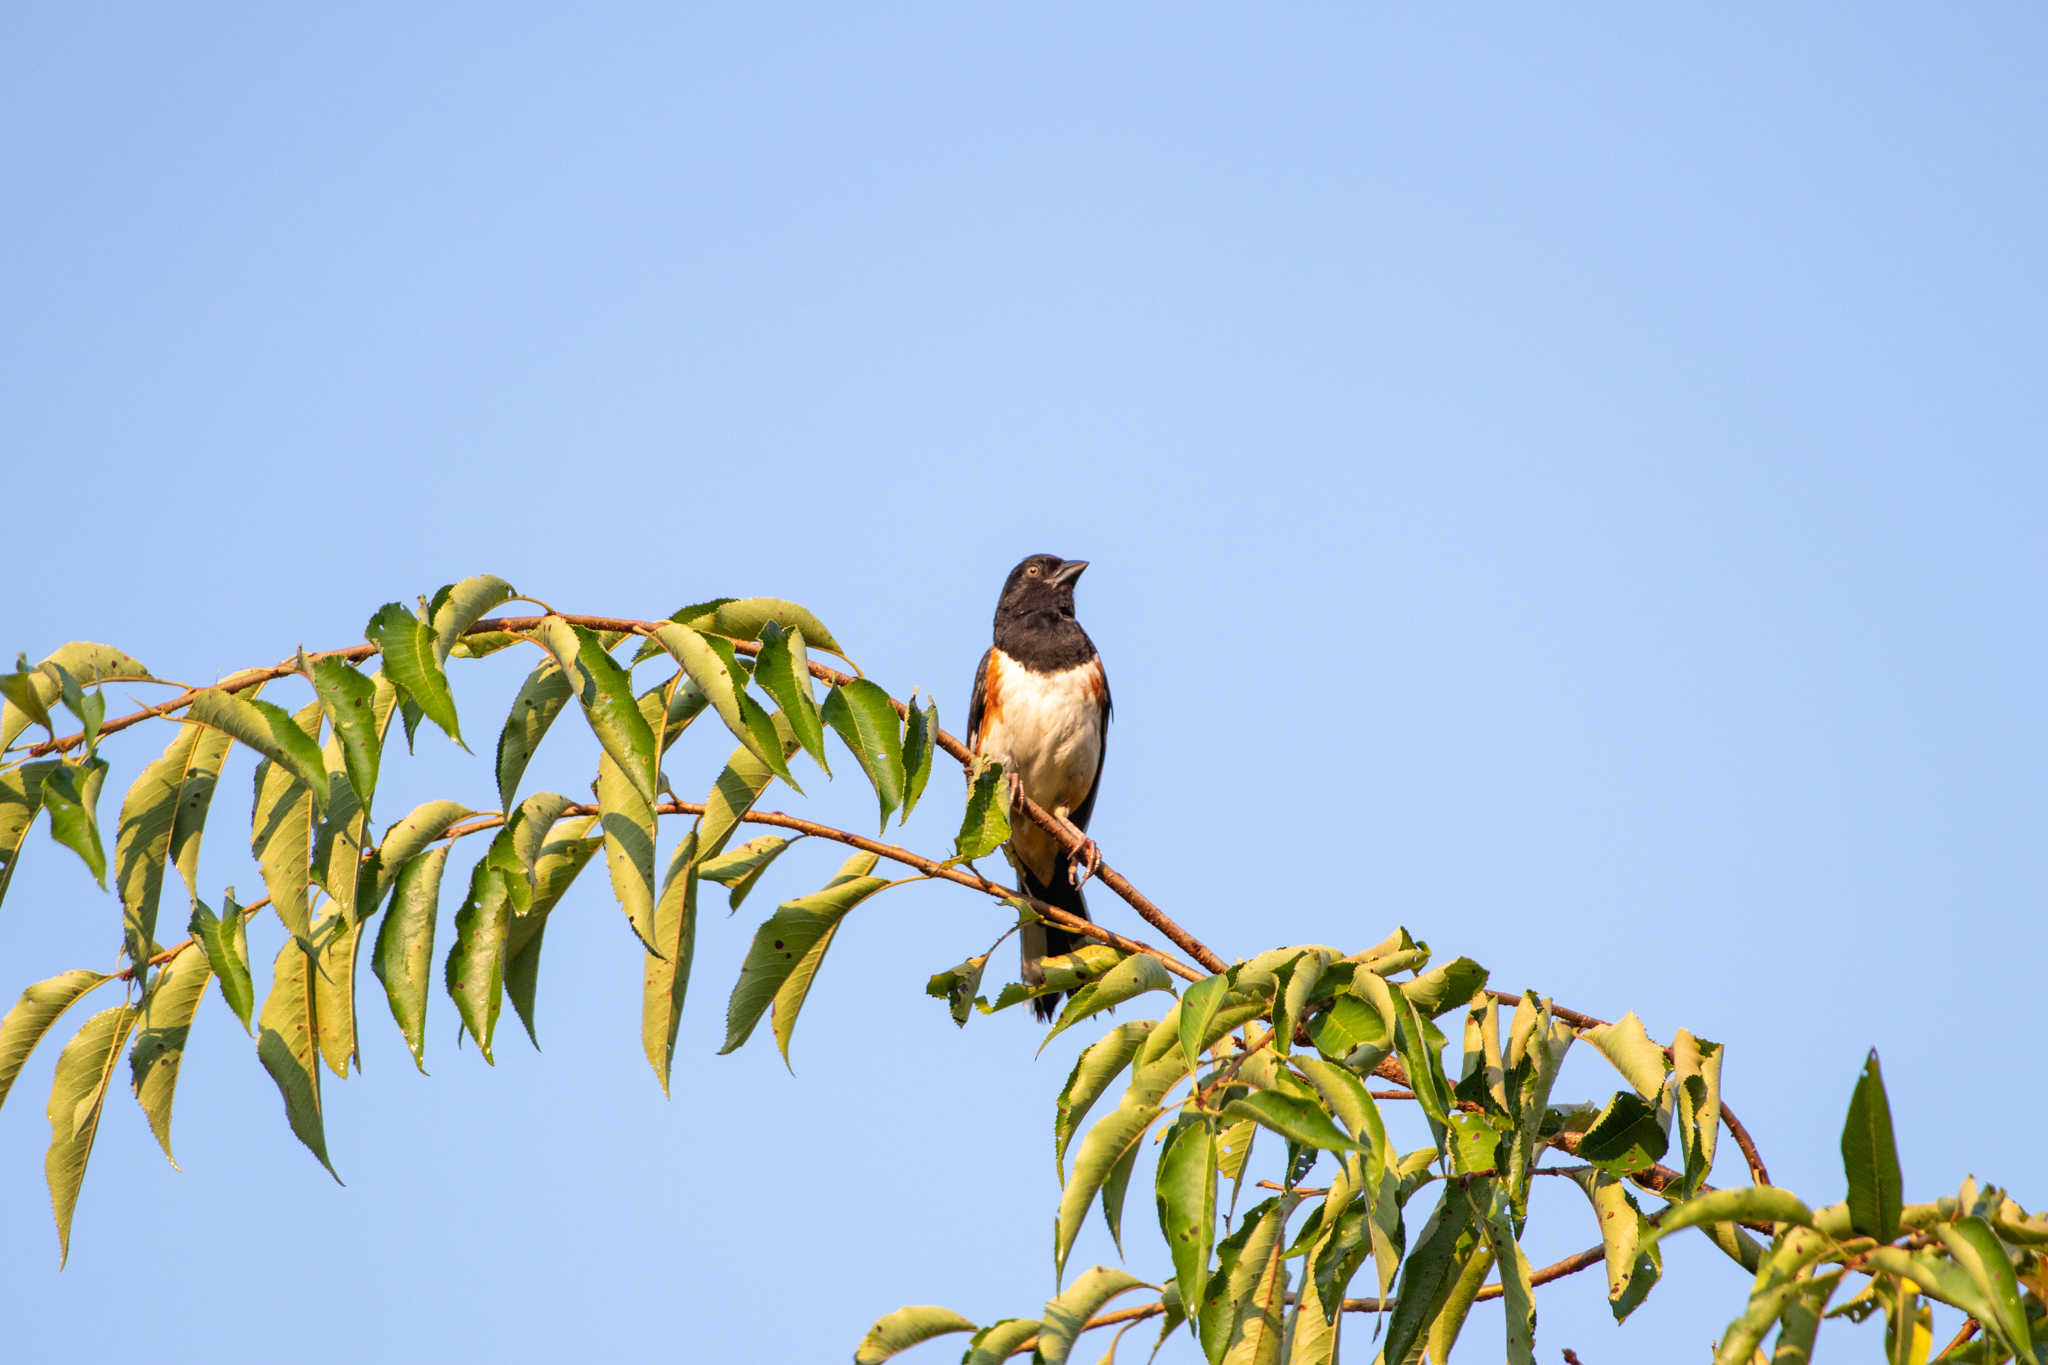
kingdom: Animalia
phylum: Chordata
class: Aves
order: Passeriformes
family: Passerellidae
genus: Pipilo
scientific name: Pipilo erythrophthalmus
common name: Eastern towhee
